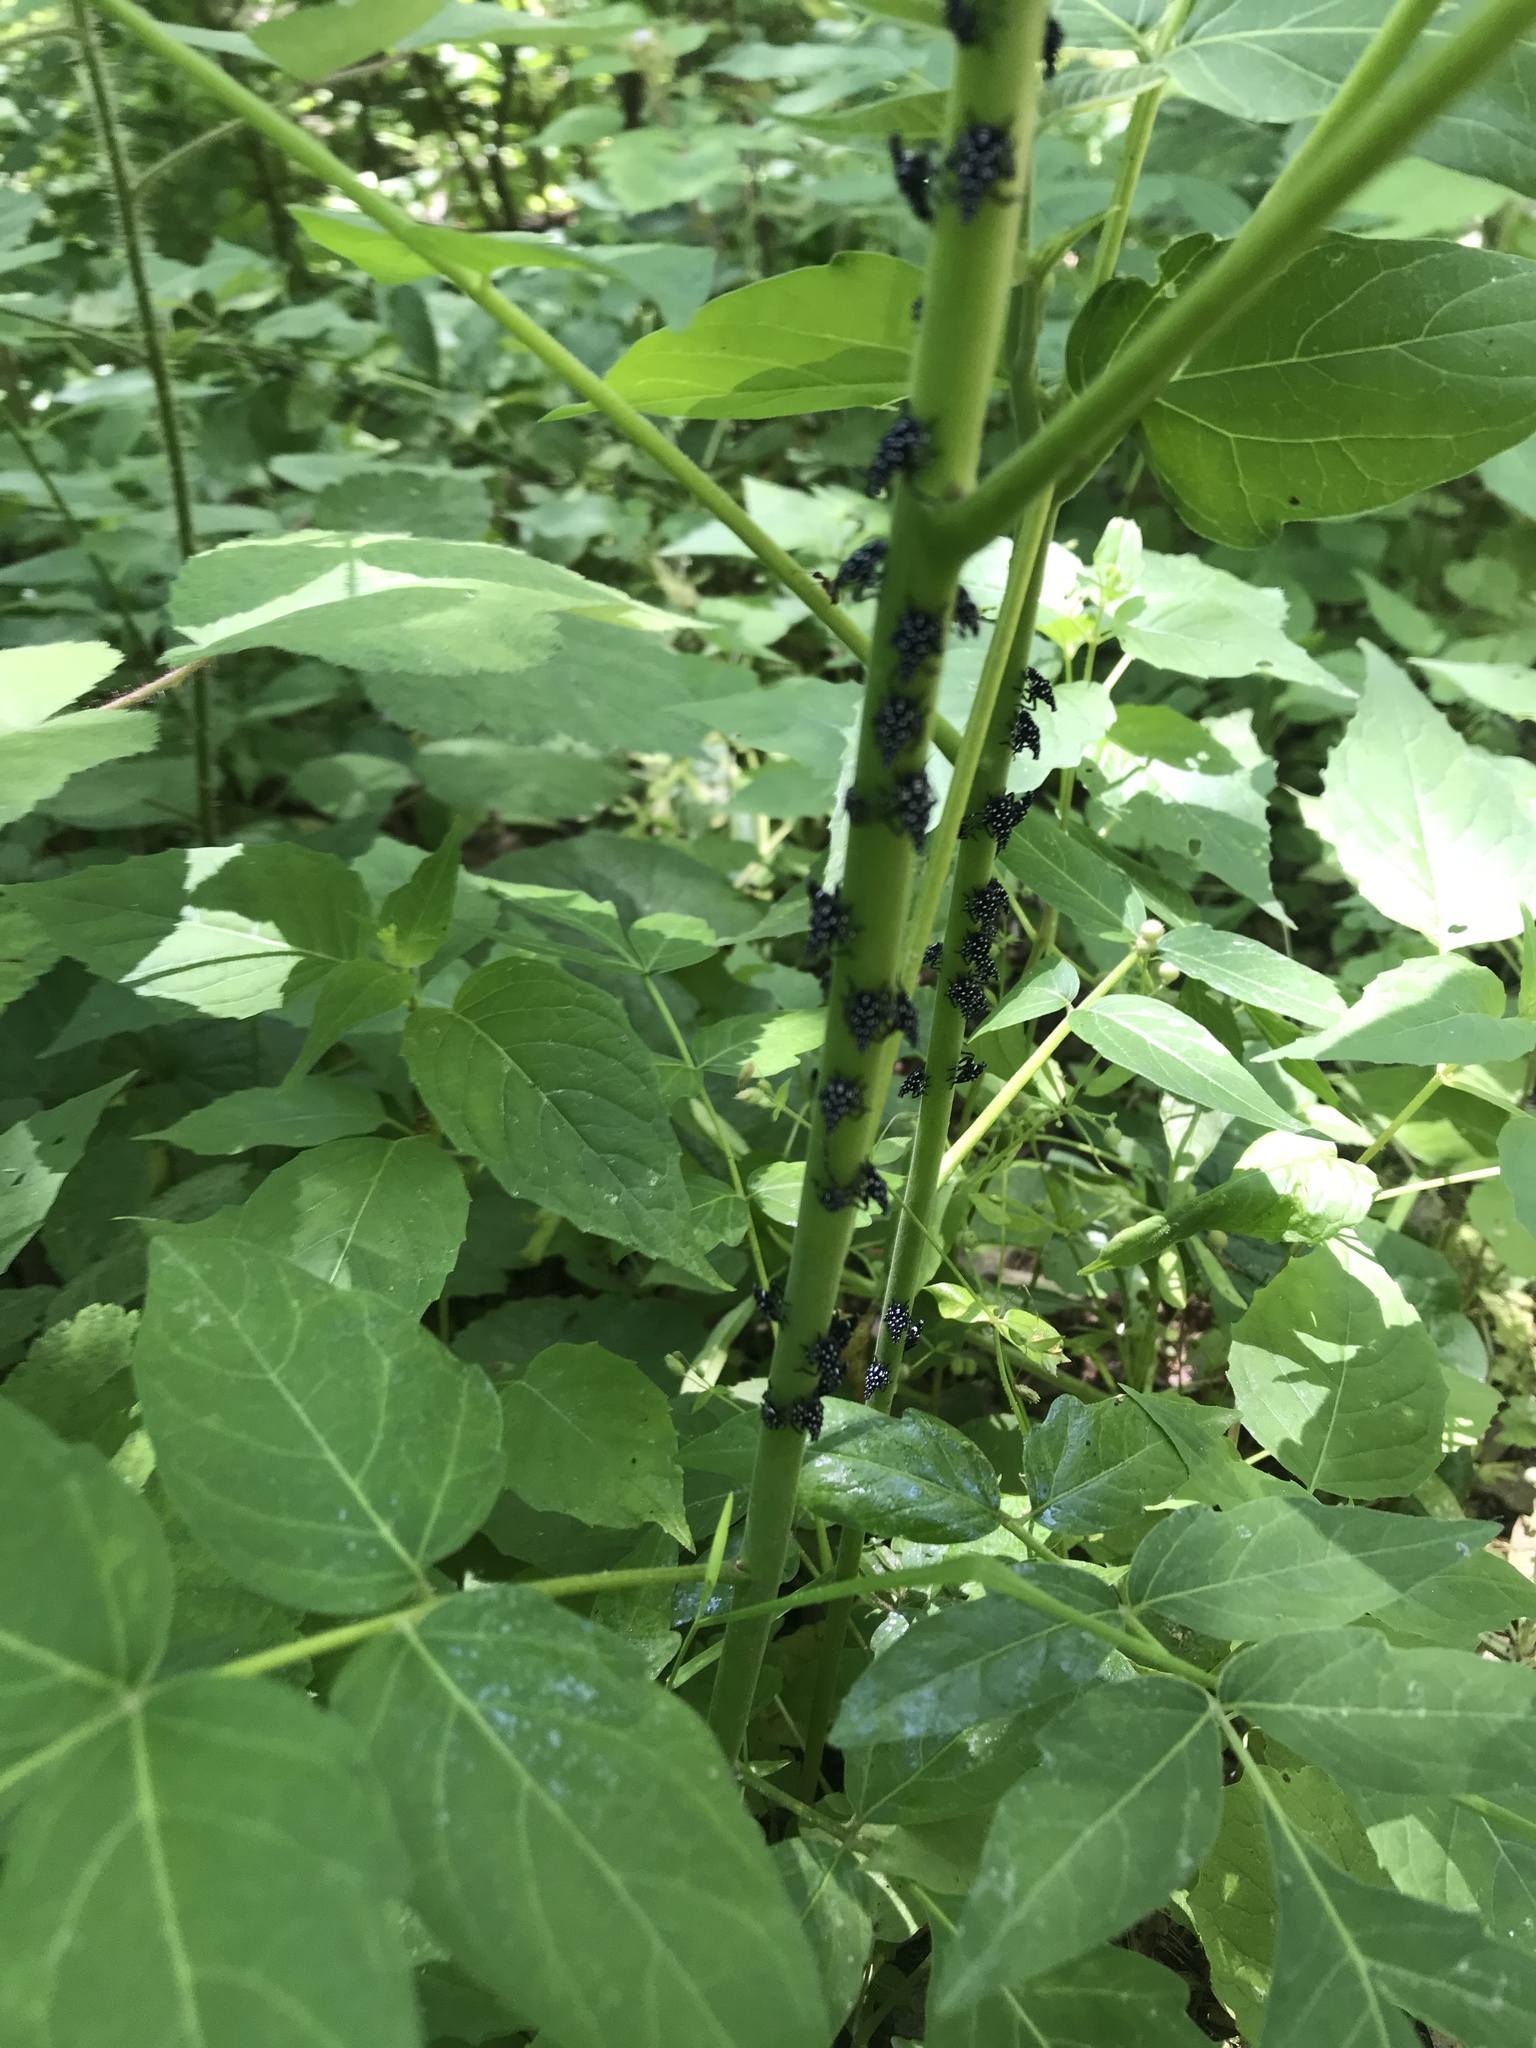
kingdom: Animalia
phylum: Arthropoda
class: Insecta
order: Hemiptera
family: Fulgoridae
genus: Lycorma
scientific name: Lycorma delicatula
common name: Spotted lanternfly
